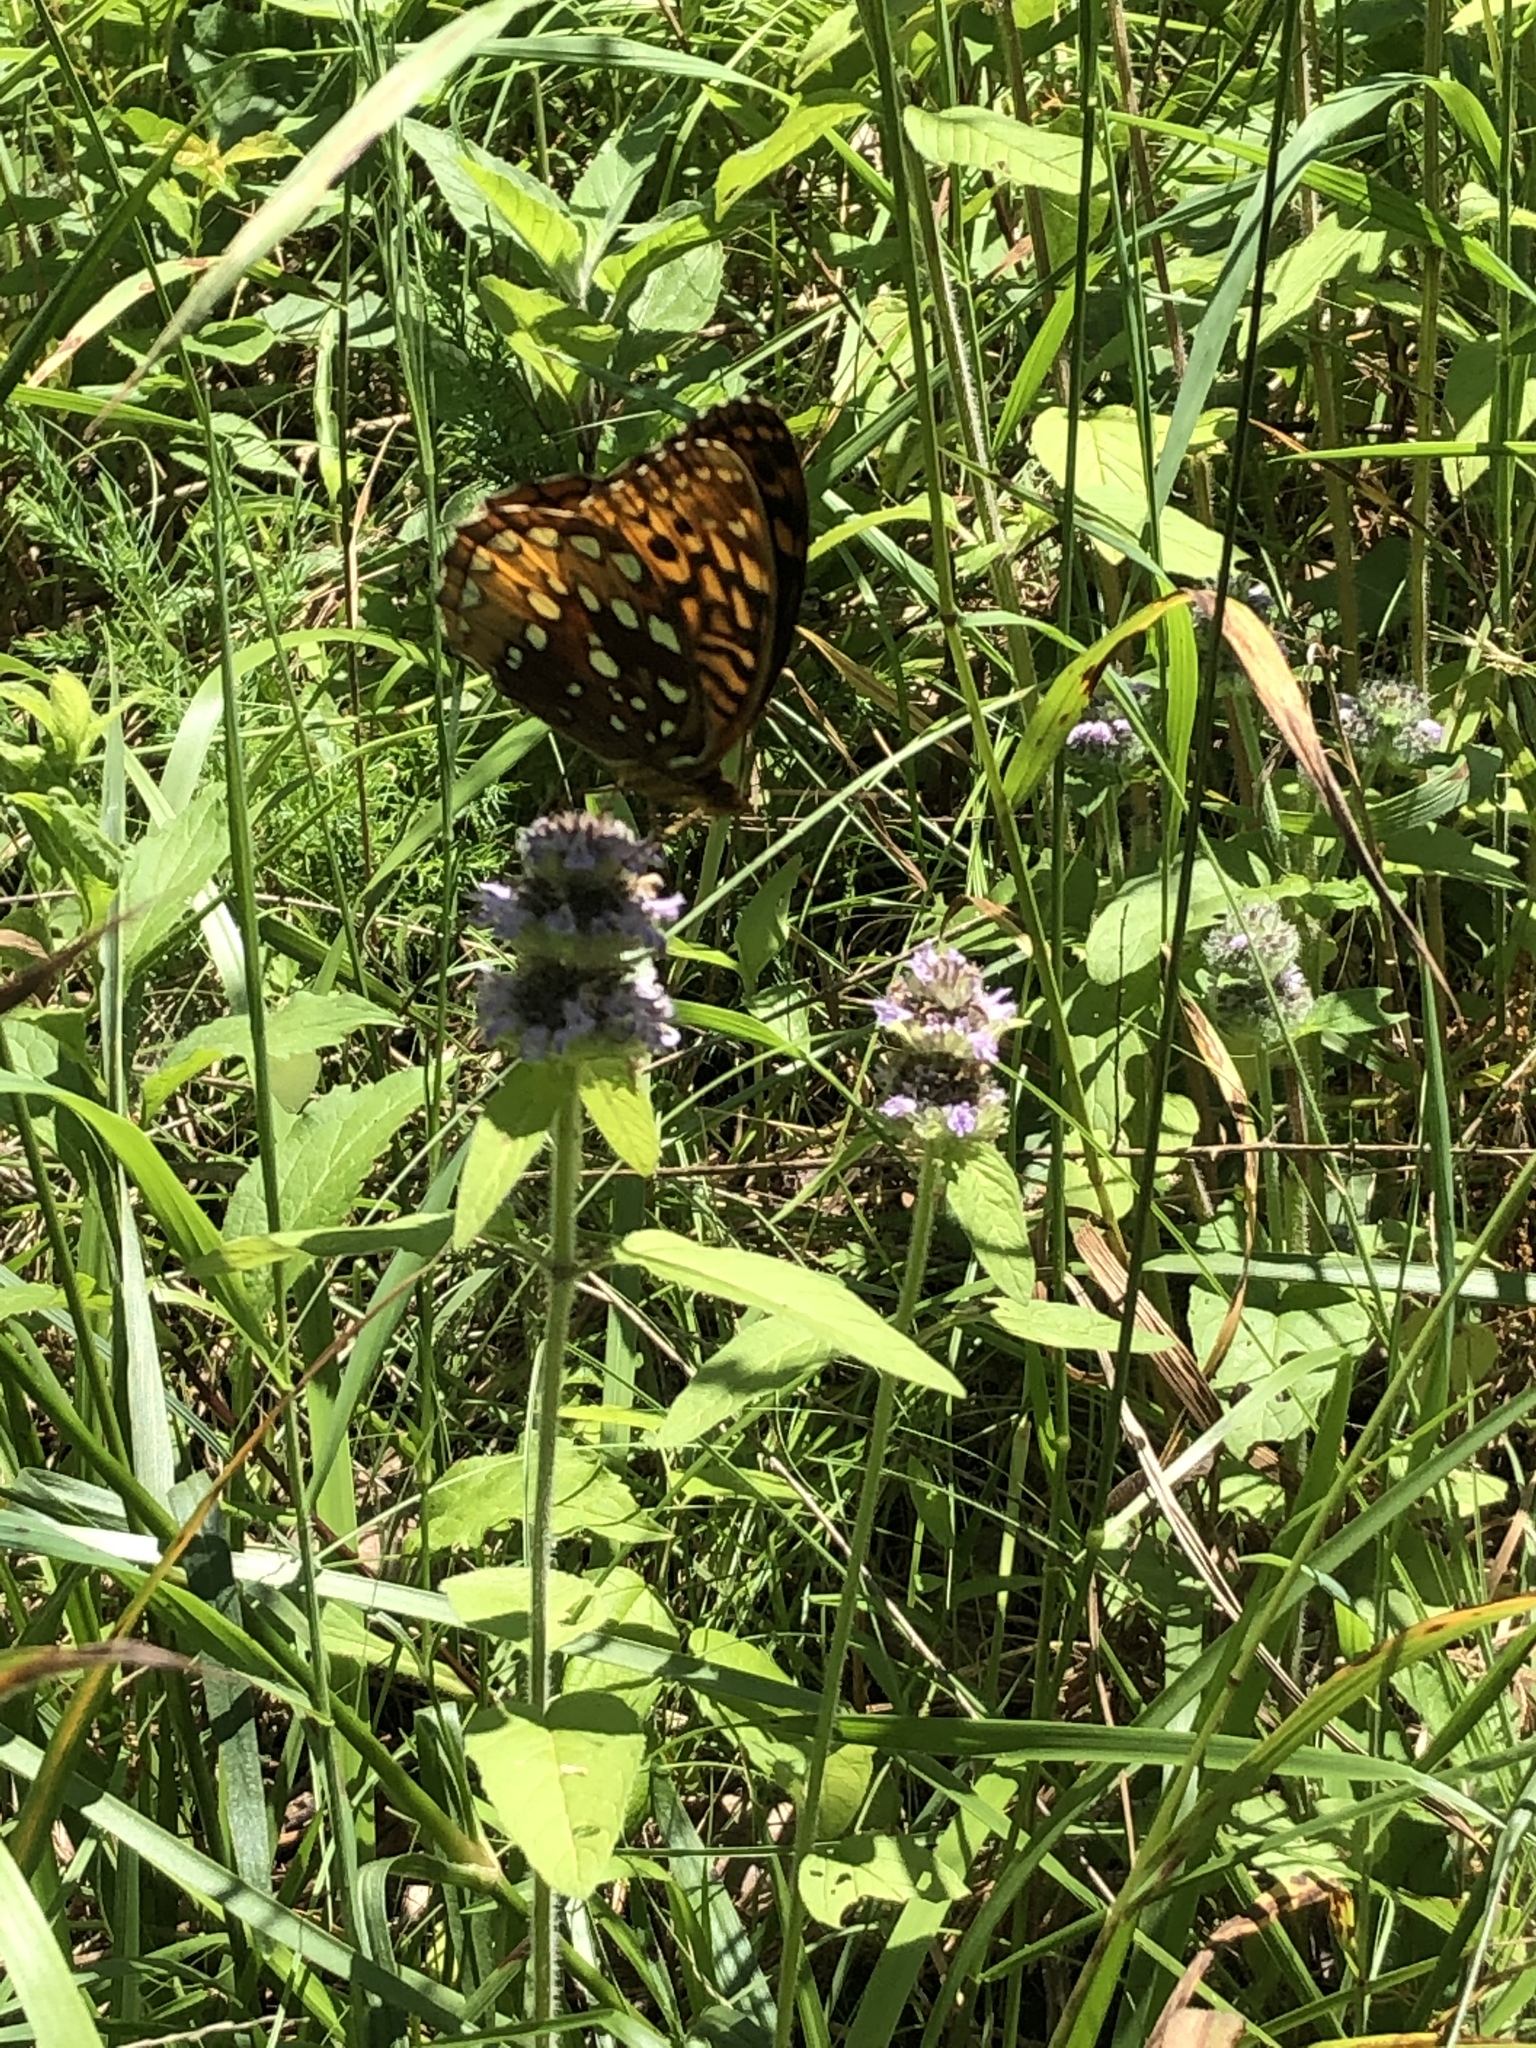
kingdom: Animalia
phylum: Arthropoda
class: Insecta
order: Lepidoptera
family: Nymphalidae
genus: Speyeria
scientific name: Speyeria cybele
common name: Great spangled fritillary
